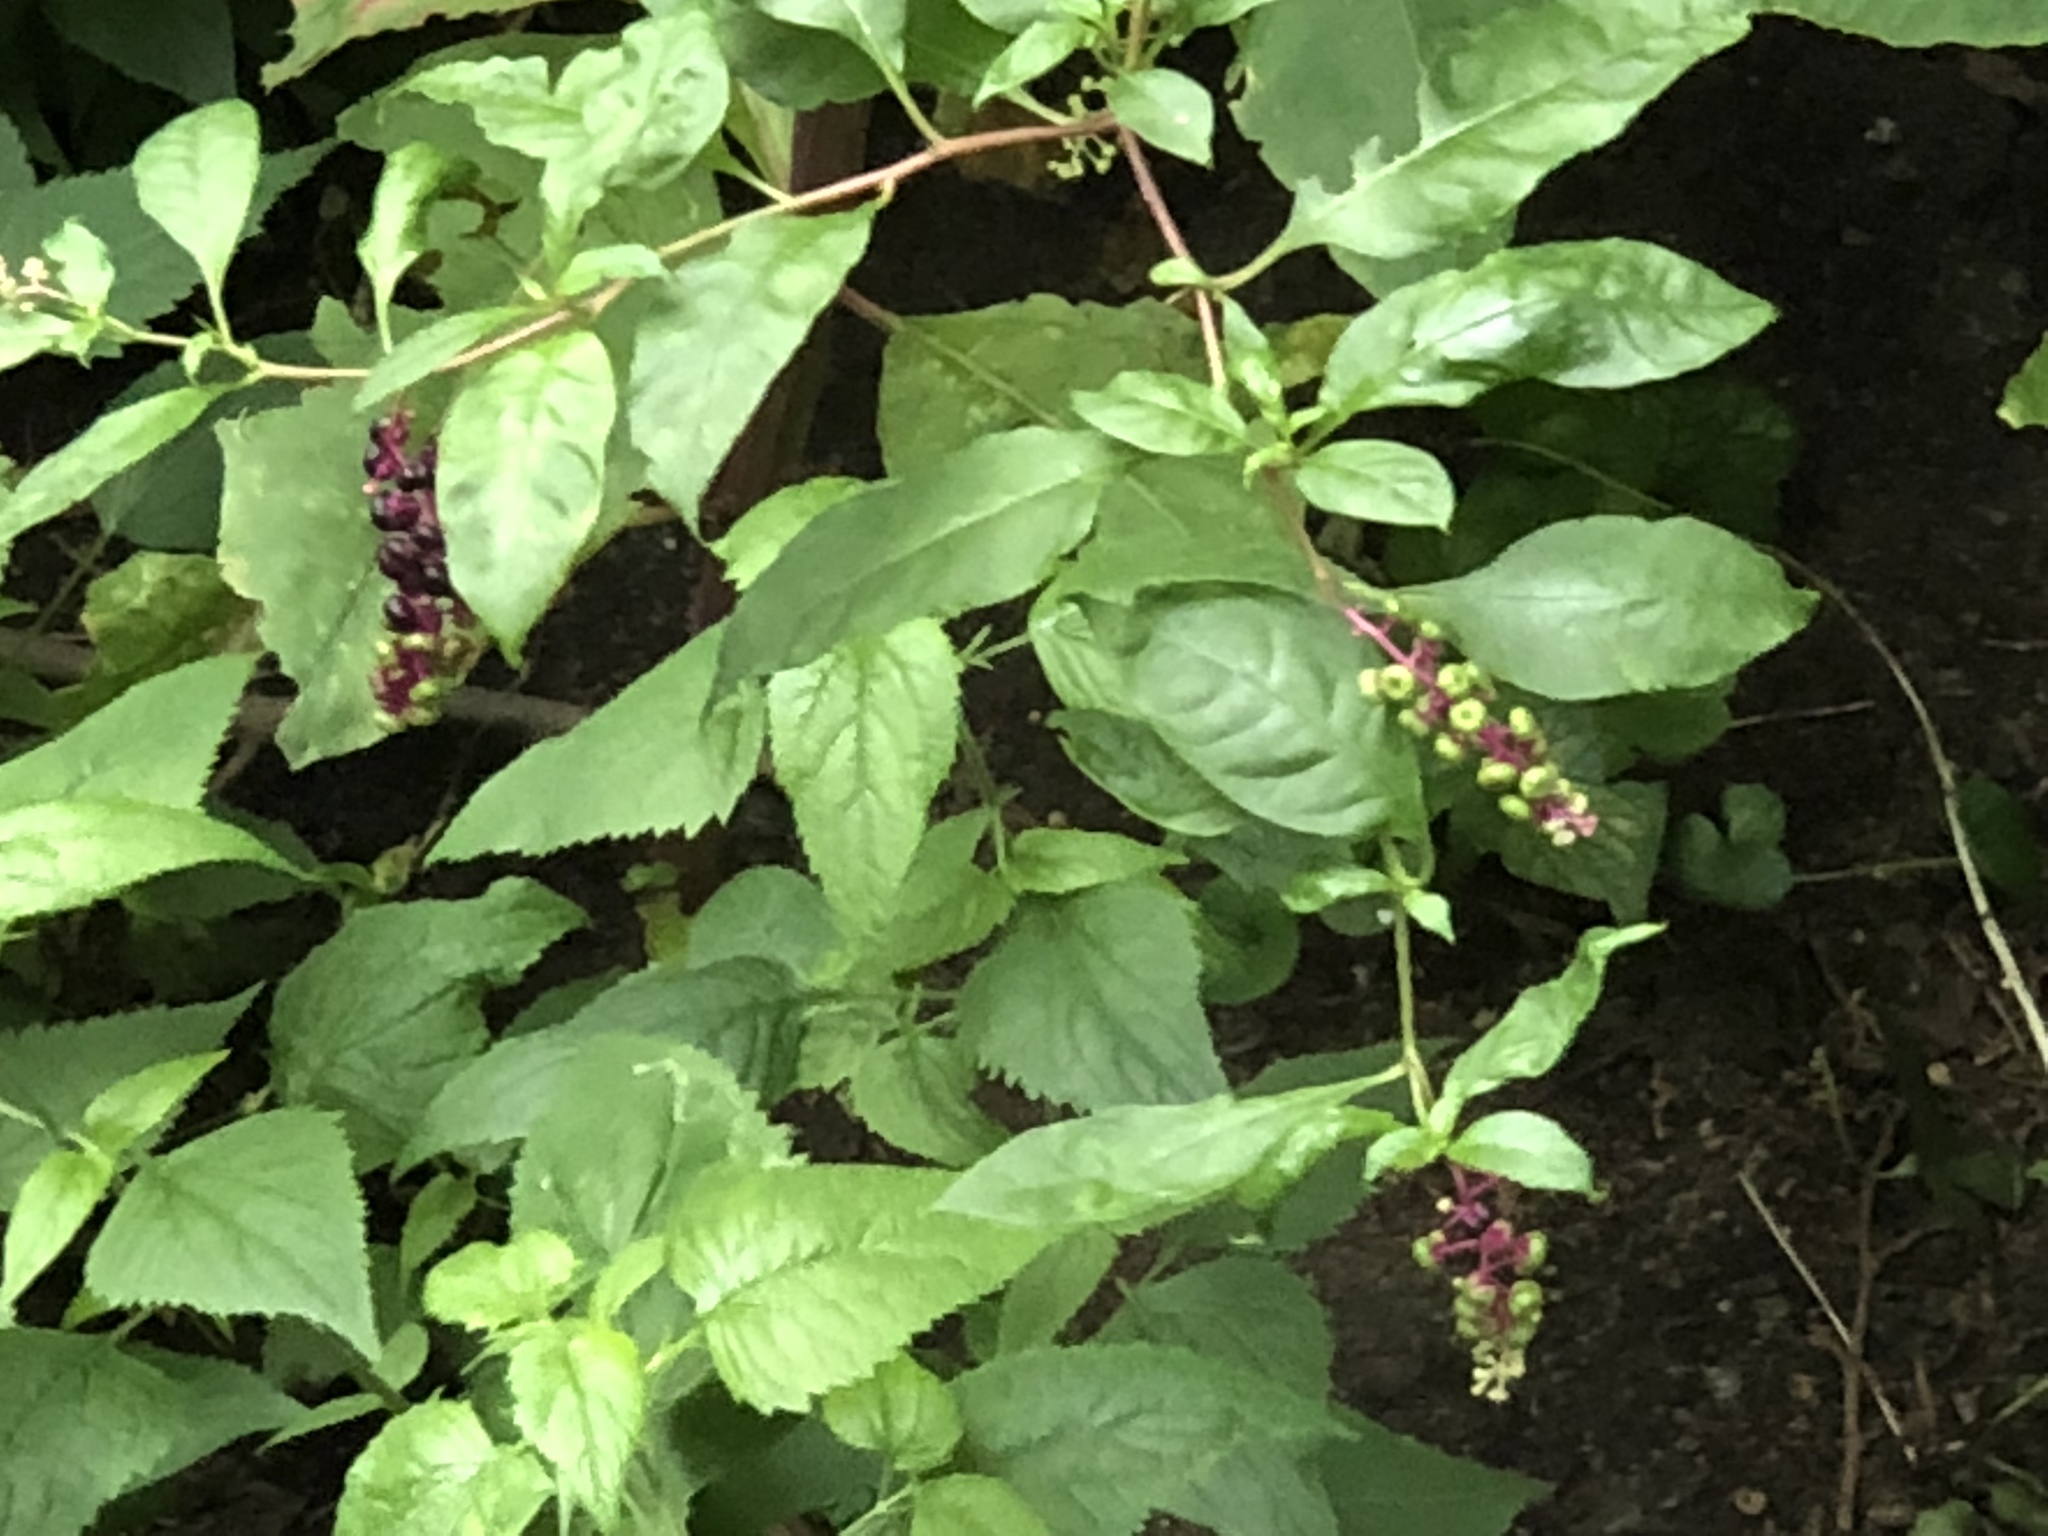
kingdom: Plantae
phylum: Tracheophyta
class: Magnoliopsida
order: Caryophyllales
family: Phytolaccaceae
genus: Phytolacca
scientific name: Phytolacca americana
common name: American pokeweed
